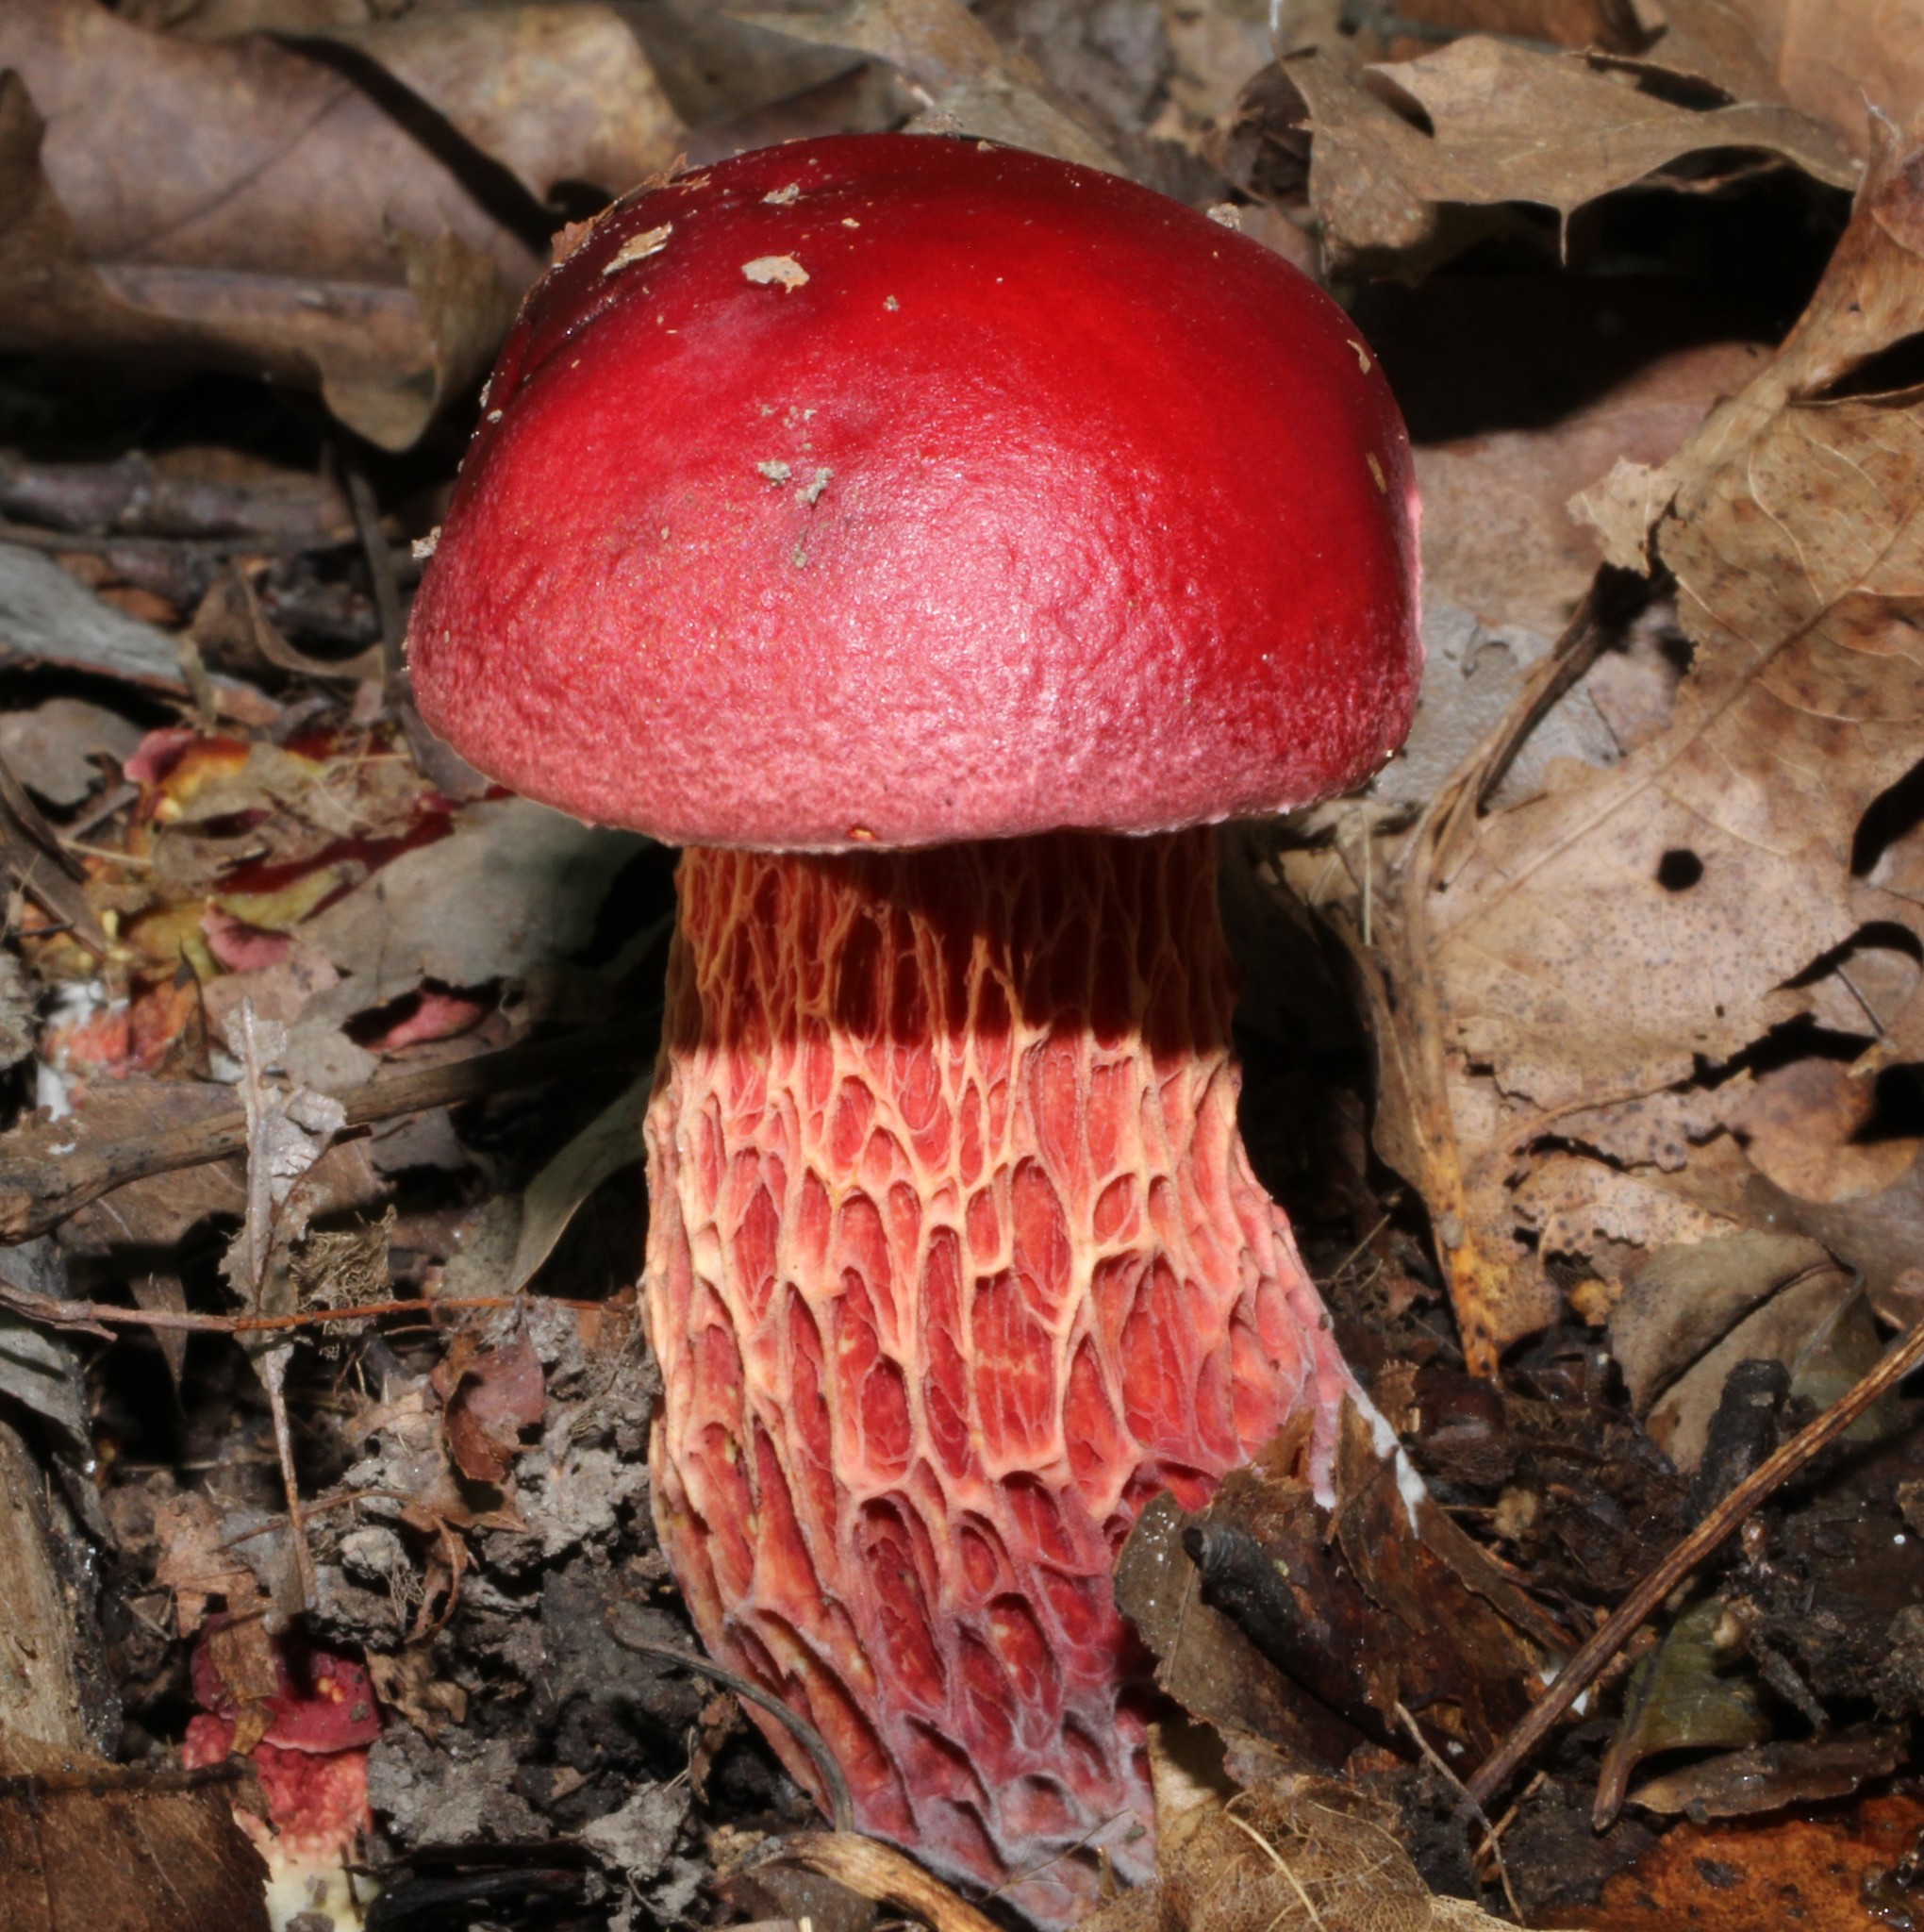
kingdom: Fungi
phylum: Basidiomycota
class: Agaricomycetes
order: Boletales
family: Boletaceae
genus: Butyriboletus
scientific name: Butyriboletus frostii
